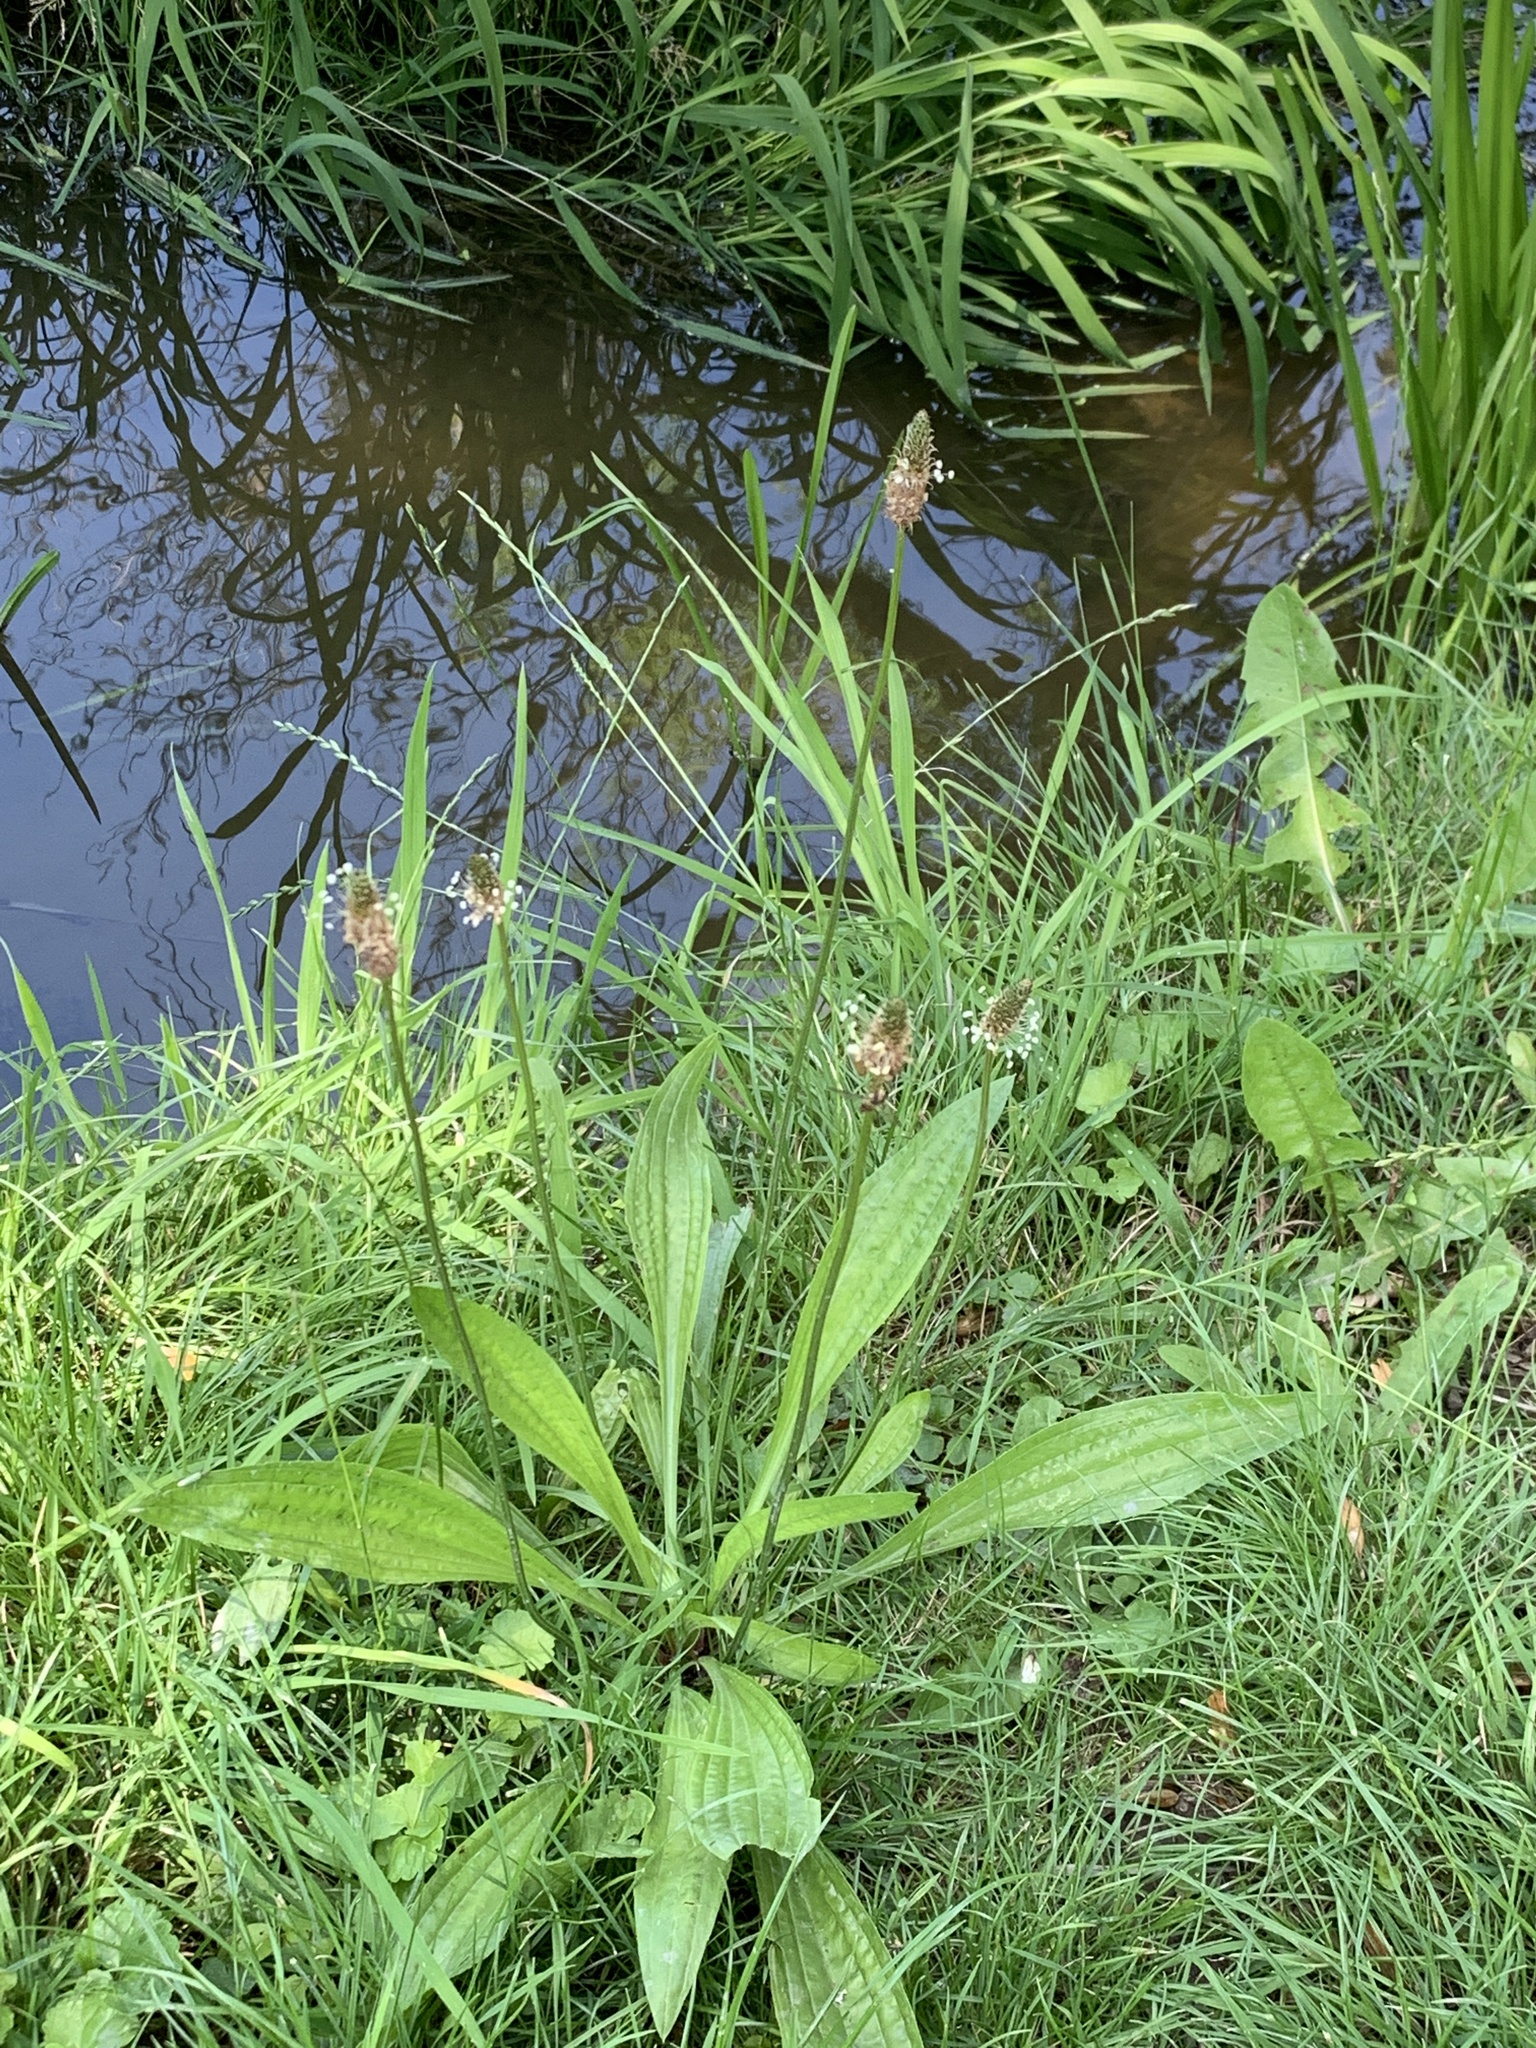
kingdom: Plantae
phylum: Tracheophyta
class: Magnoliopsida
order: Lamiales
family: Plantaginaceae
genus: Plantago
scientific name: Plantago lanceolata
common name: Ribwort plantain
